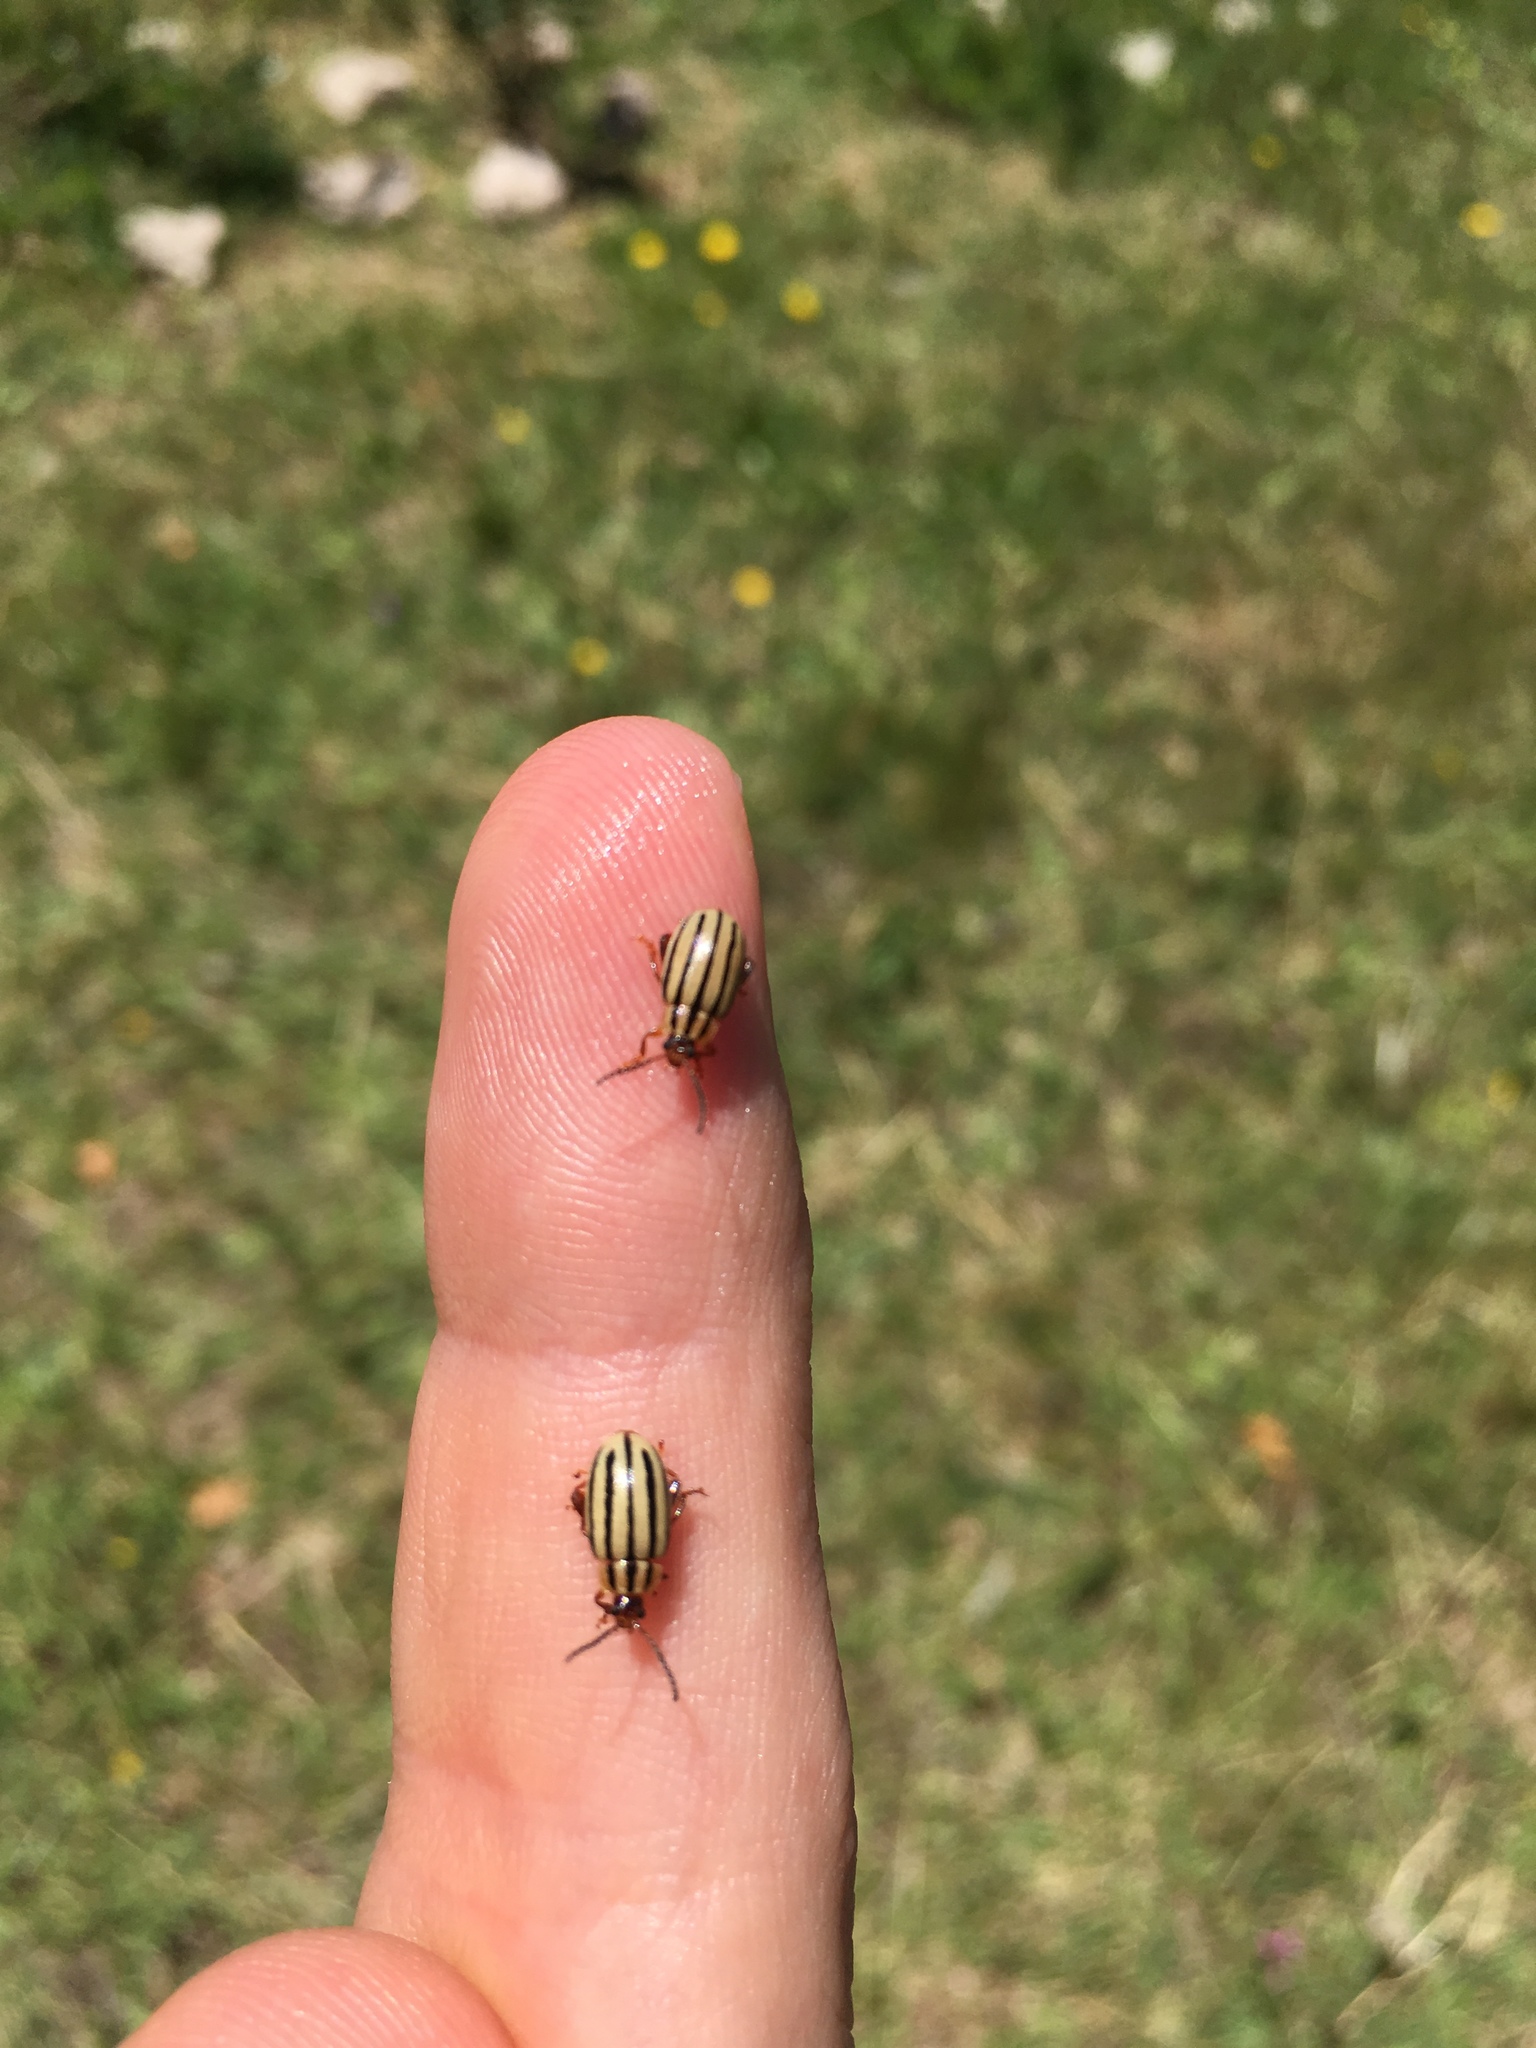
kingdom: Animalia
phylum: Arthropoda
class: Insecta
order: Coleoptera
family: Chrysomelidae
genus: Kuschelina
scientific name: Kuschelina
